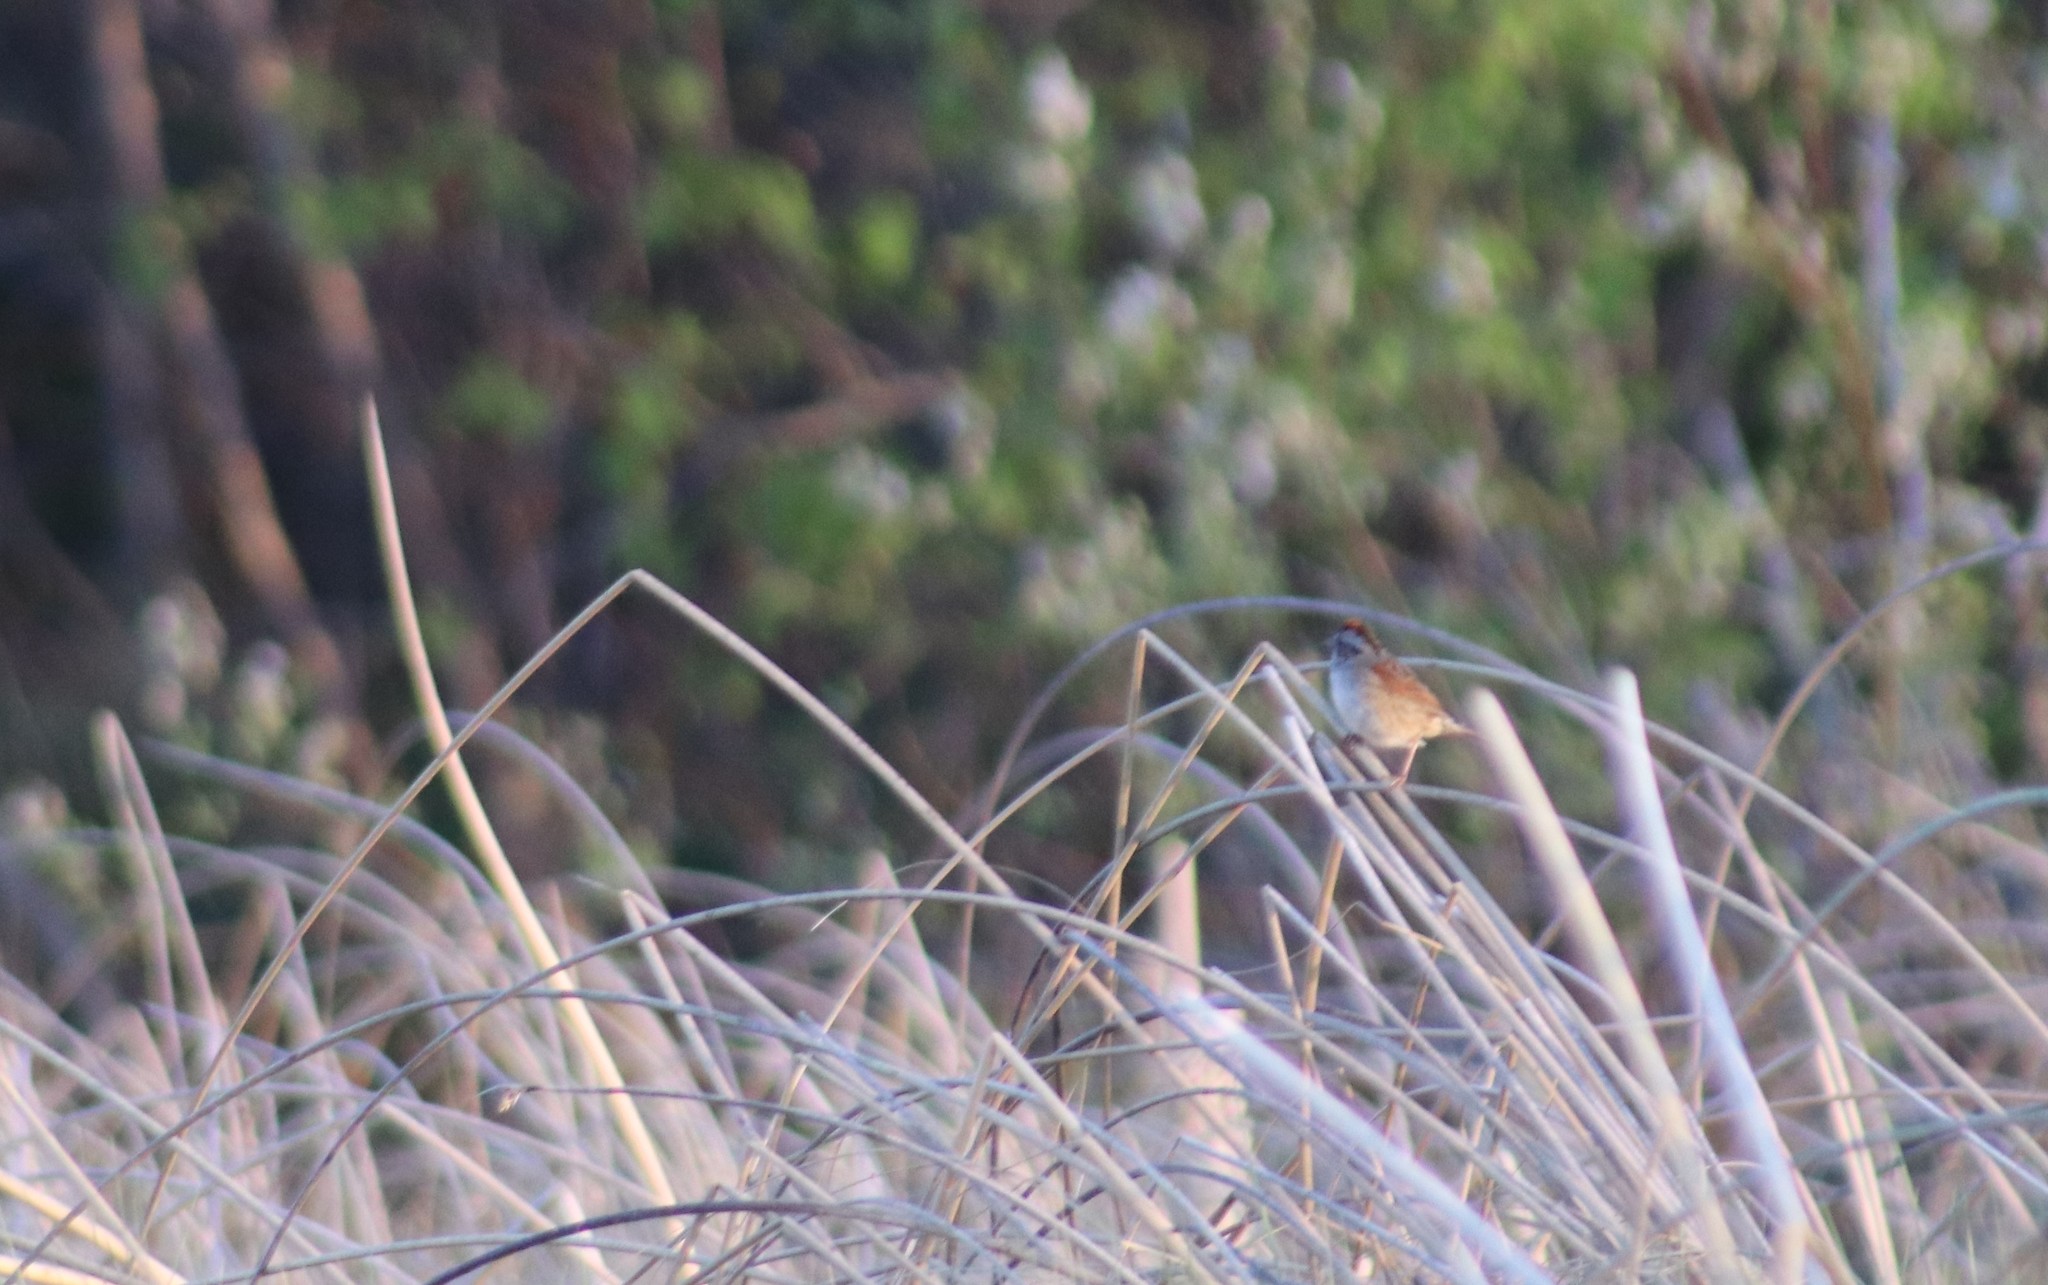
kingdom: Animalia
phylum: Chordata
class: Aves
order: Passeriformes
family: Passerellidae
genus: Melospiza
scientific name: Melospiza georgiana
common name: Swamp sparrow
